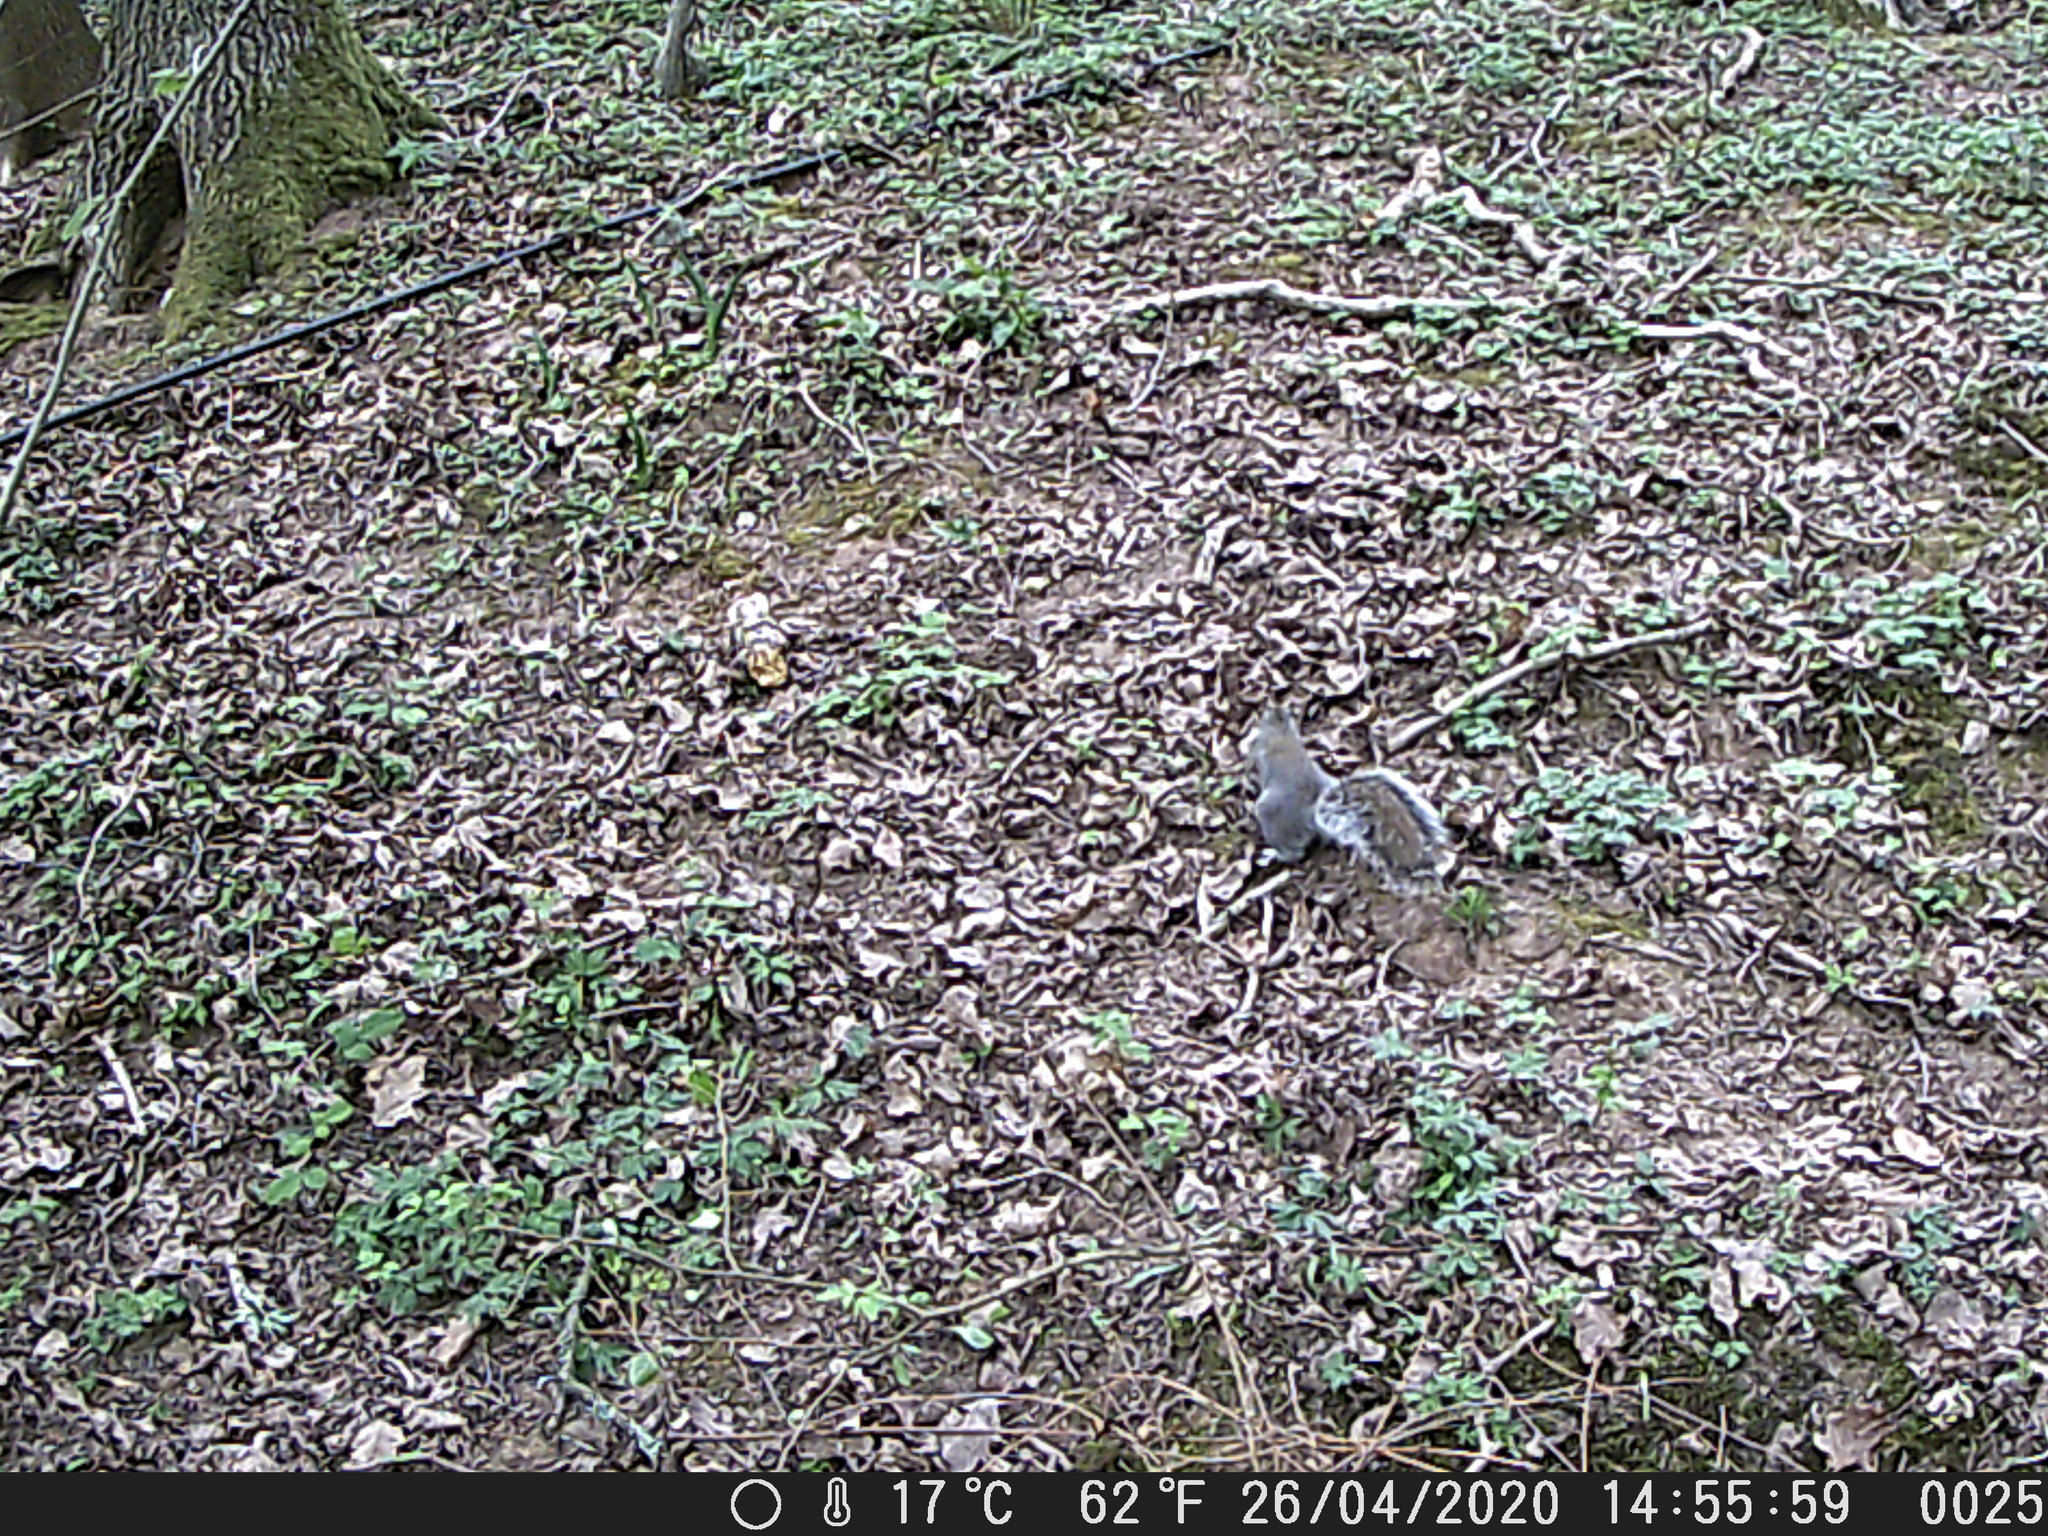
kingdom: Animalia
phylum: Chordata
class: Mammalia
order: Rodentia
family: Sciuridae
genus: Sciurus
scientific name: Sciurus carolinensis
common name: Eastern gray squirrel
